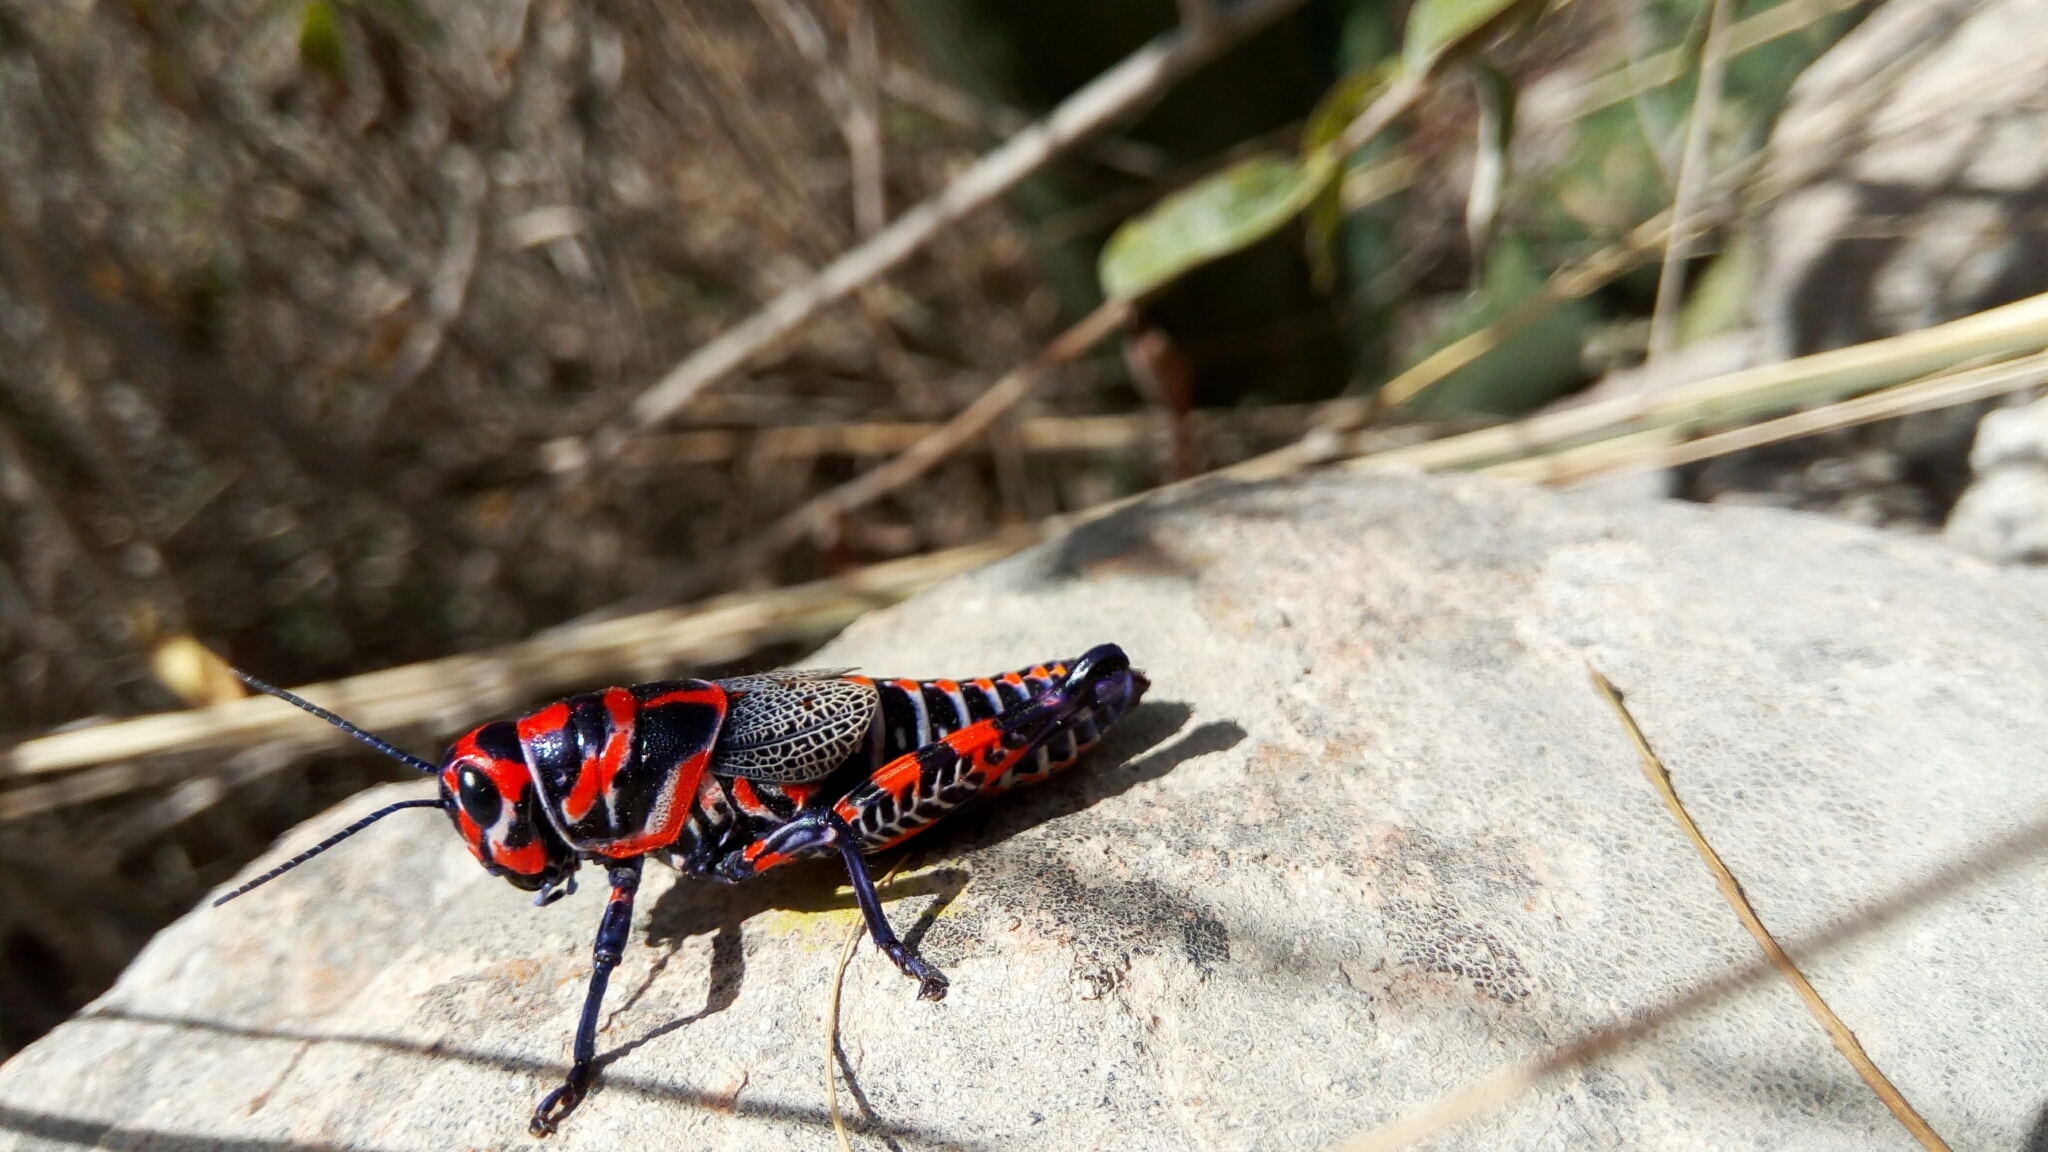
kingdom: Animalia
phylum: Arthropoda
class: Insecta
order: Orthoptera
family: Acrididae
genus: Dactylotum
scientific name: Dactylotum bicolor
